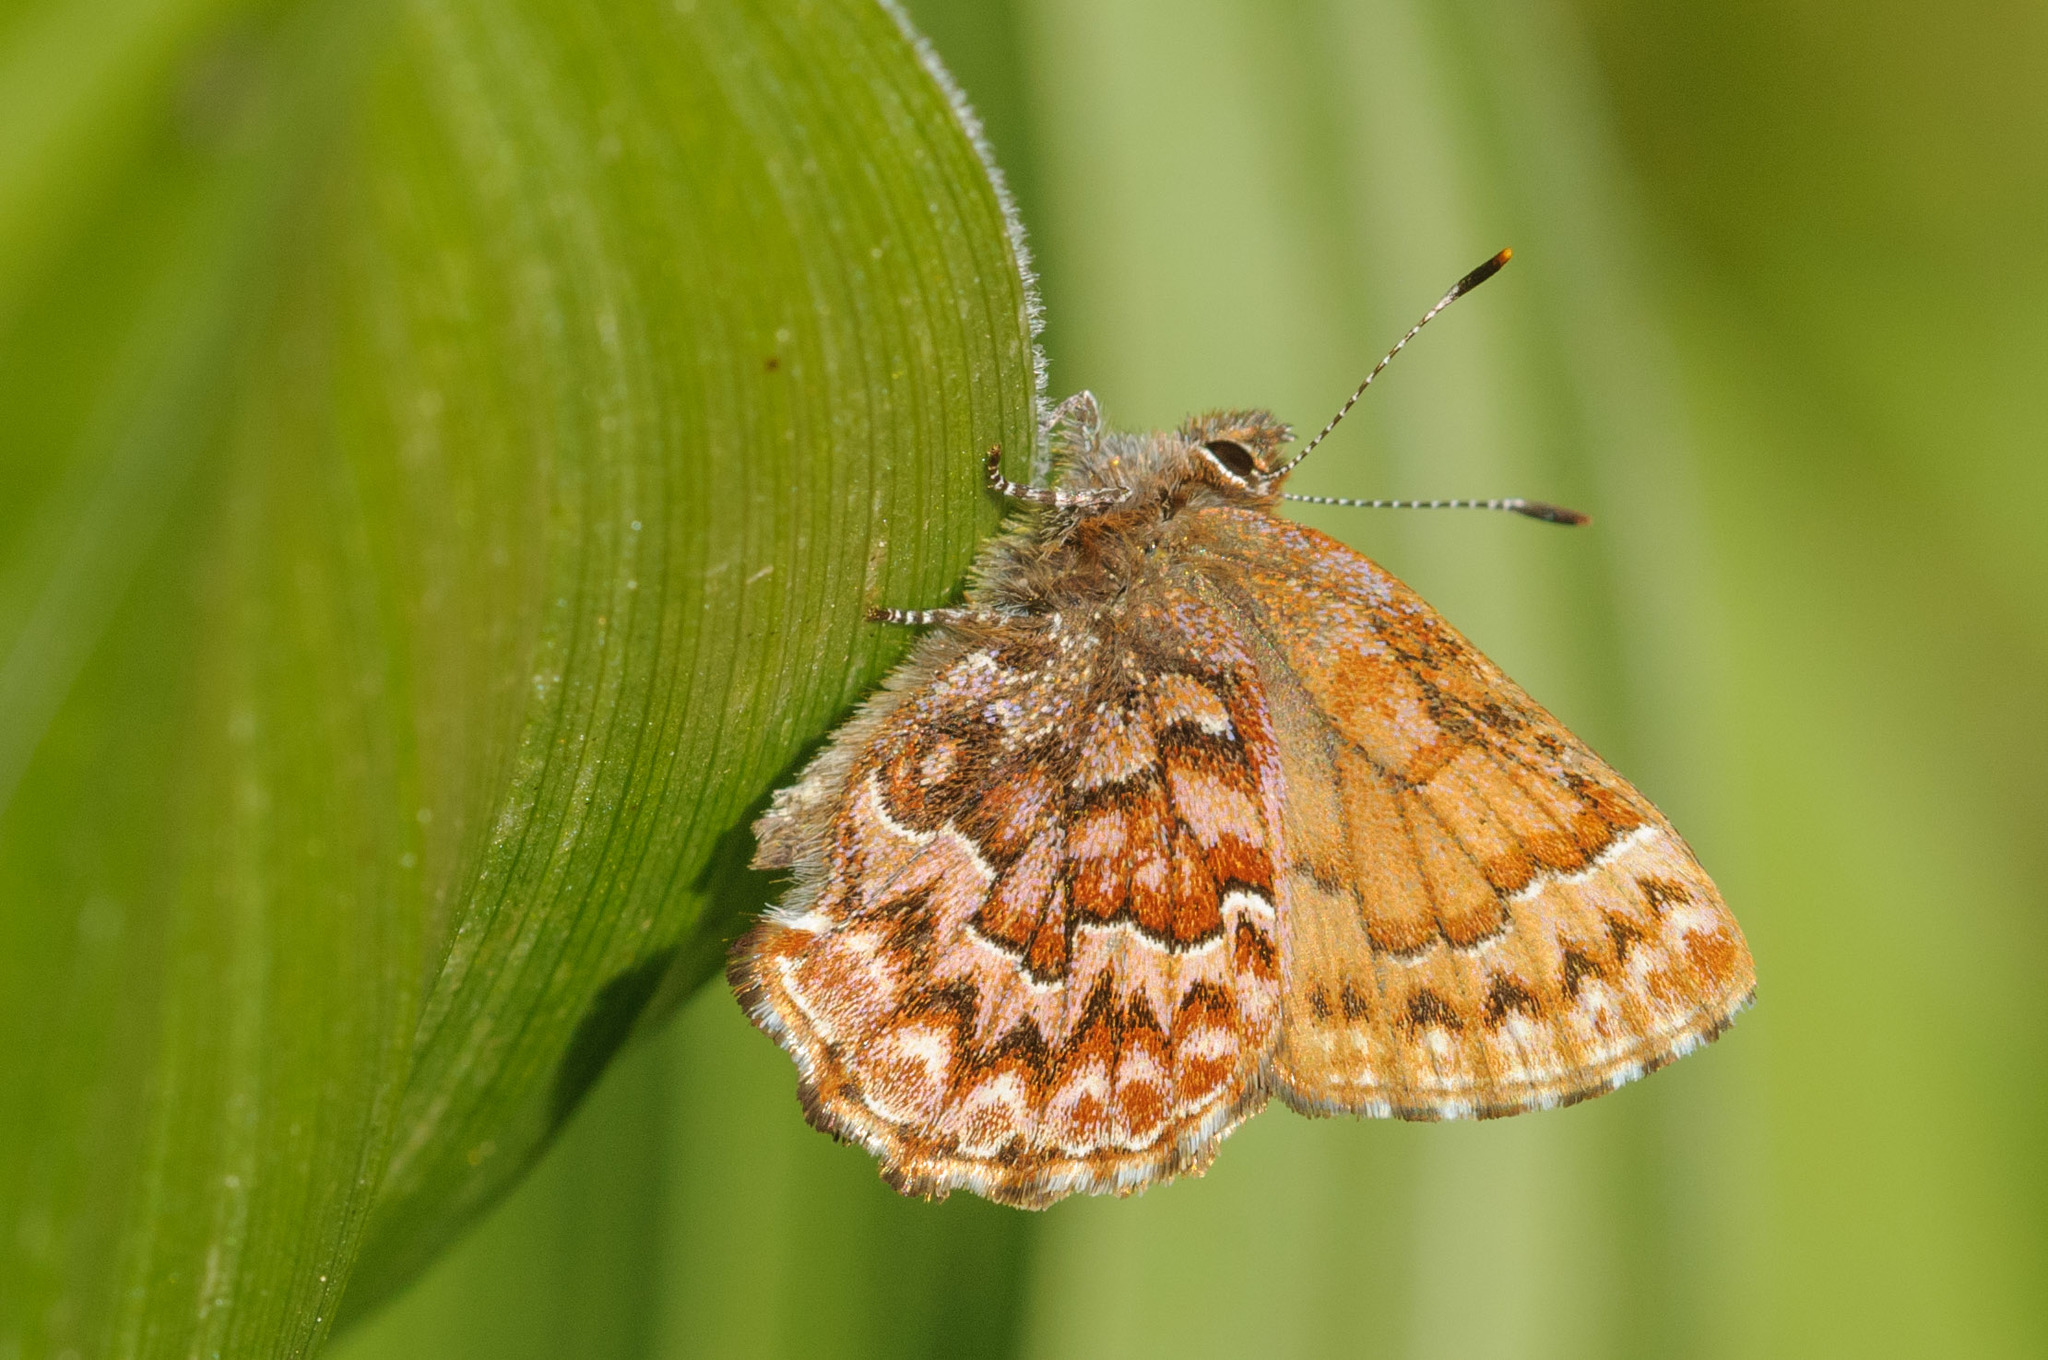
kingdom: Animalia
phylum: Arthropoda
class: Insecta
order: Lepidoptera
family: Lycaenidae
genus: Incisalia
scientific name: Incisalia eryphon
